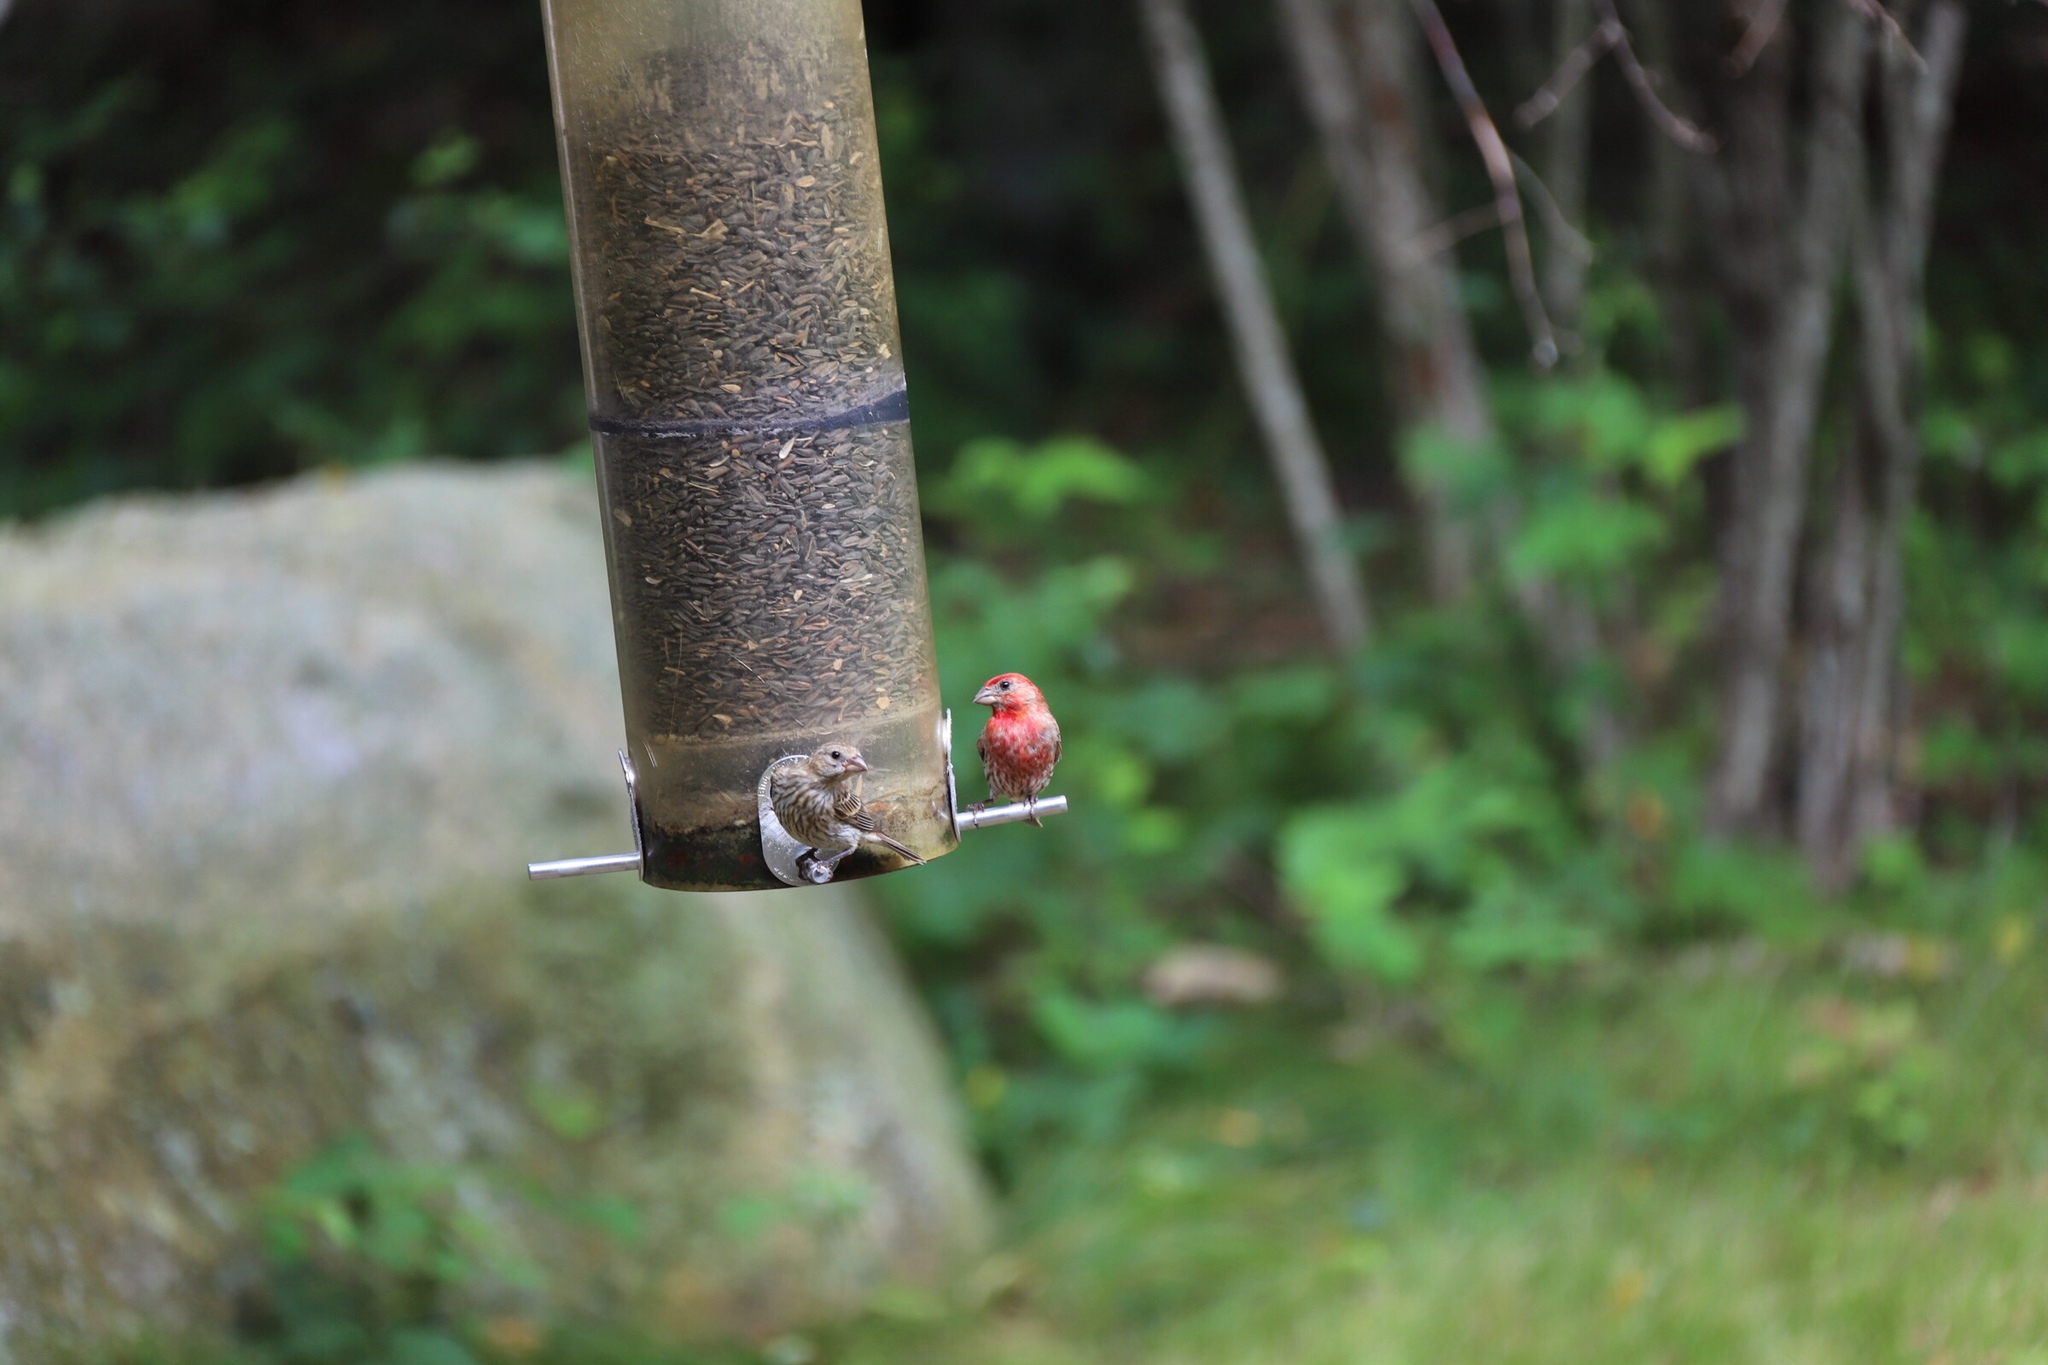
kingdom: Animalia
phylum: Chordata
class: Aves
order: Passeriformes
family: Fringillidae
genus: Haemorhous
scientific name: Haemorhous mexicanus
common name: House finch
